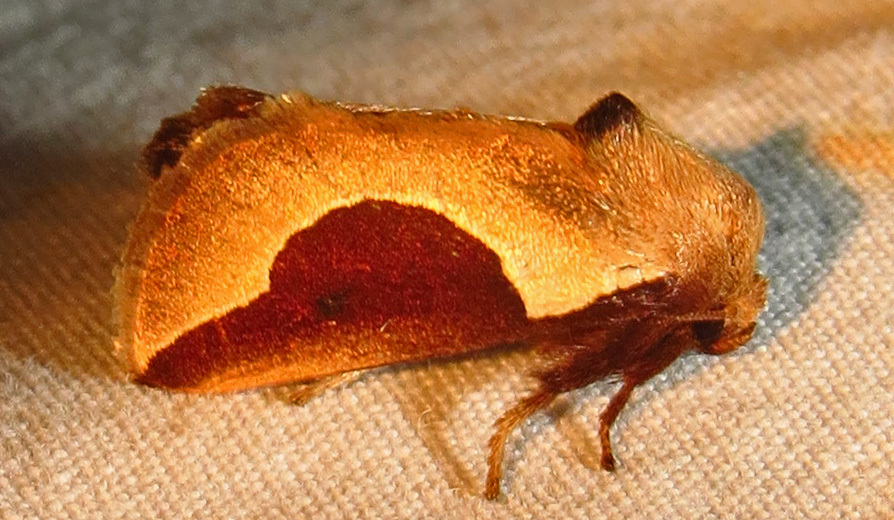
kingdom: Animalia
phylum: Arthropoda
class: Insecta
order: Lepidoptera
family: Limacodidae
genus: Prolimacodes
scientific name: Prolimacodes badia
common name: Skiff moth
